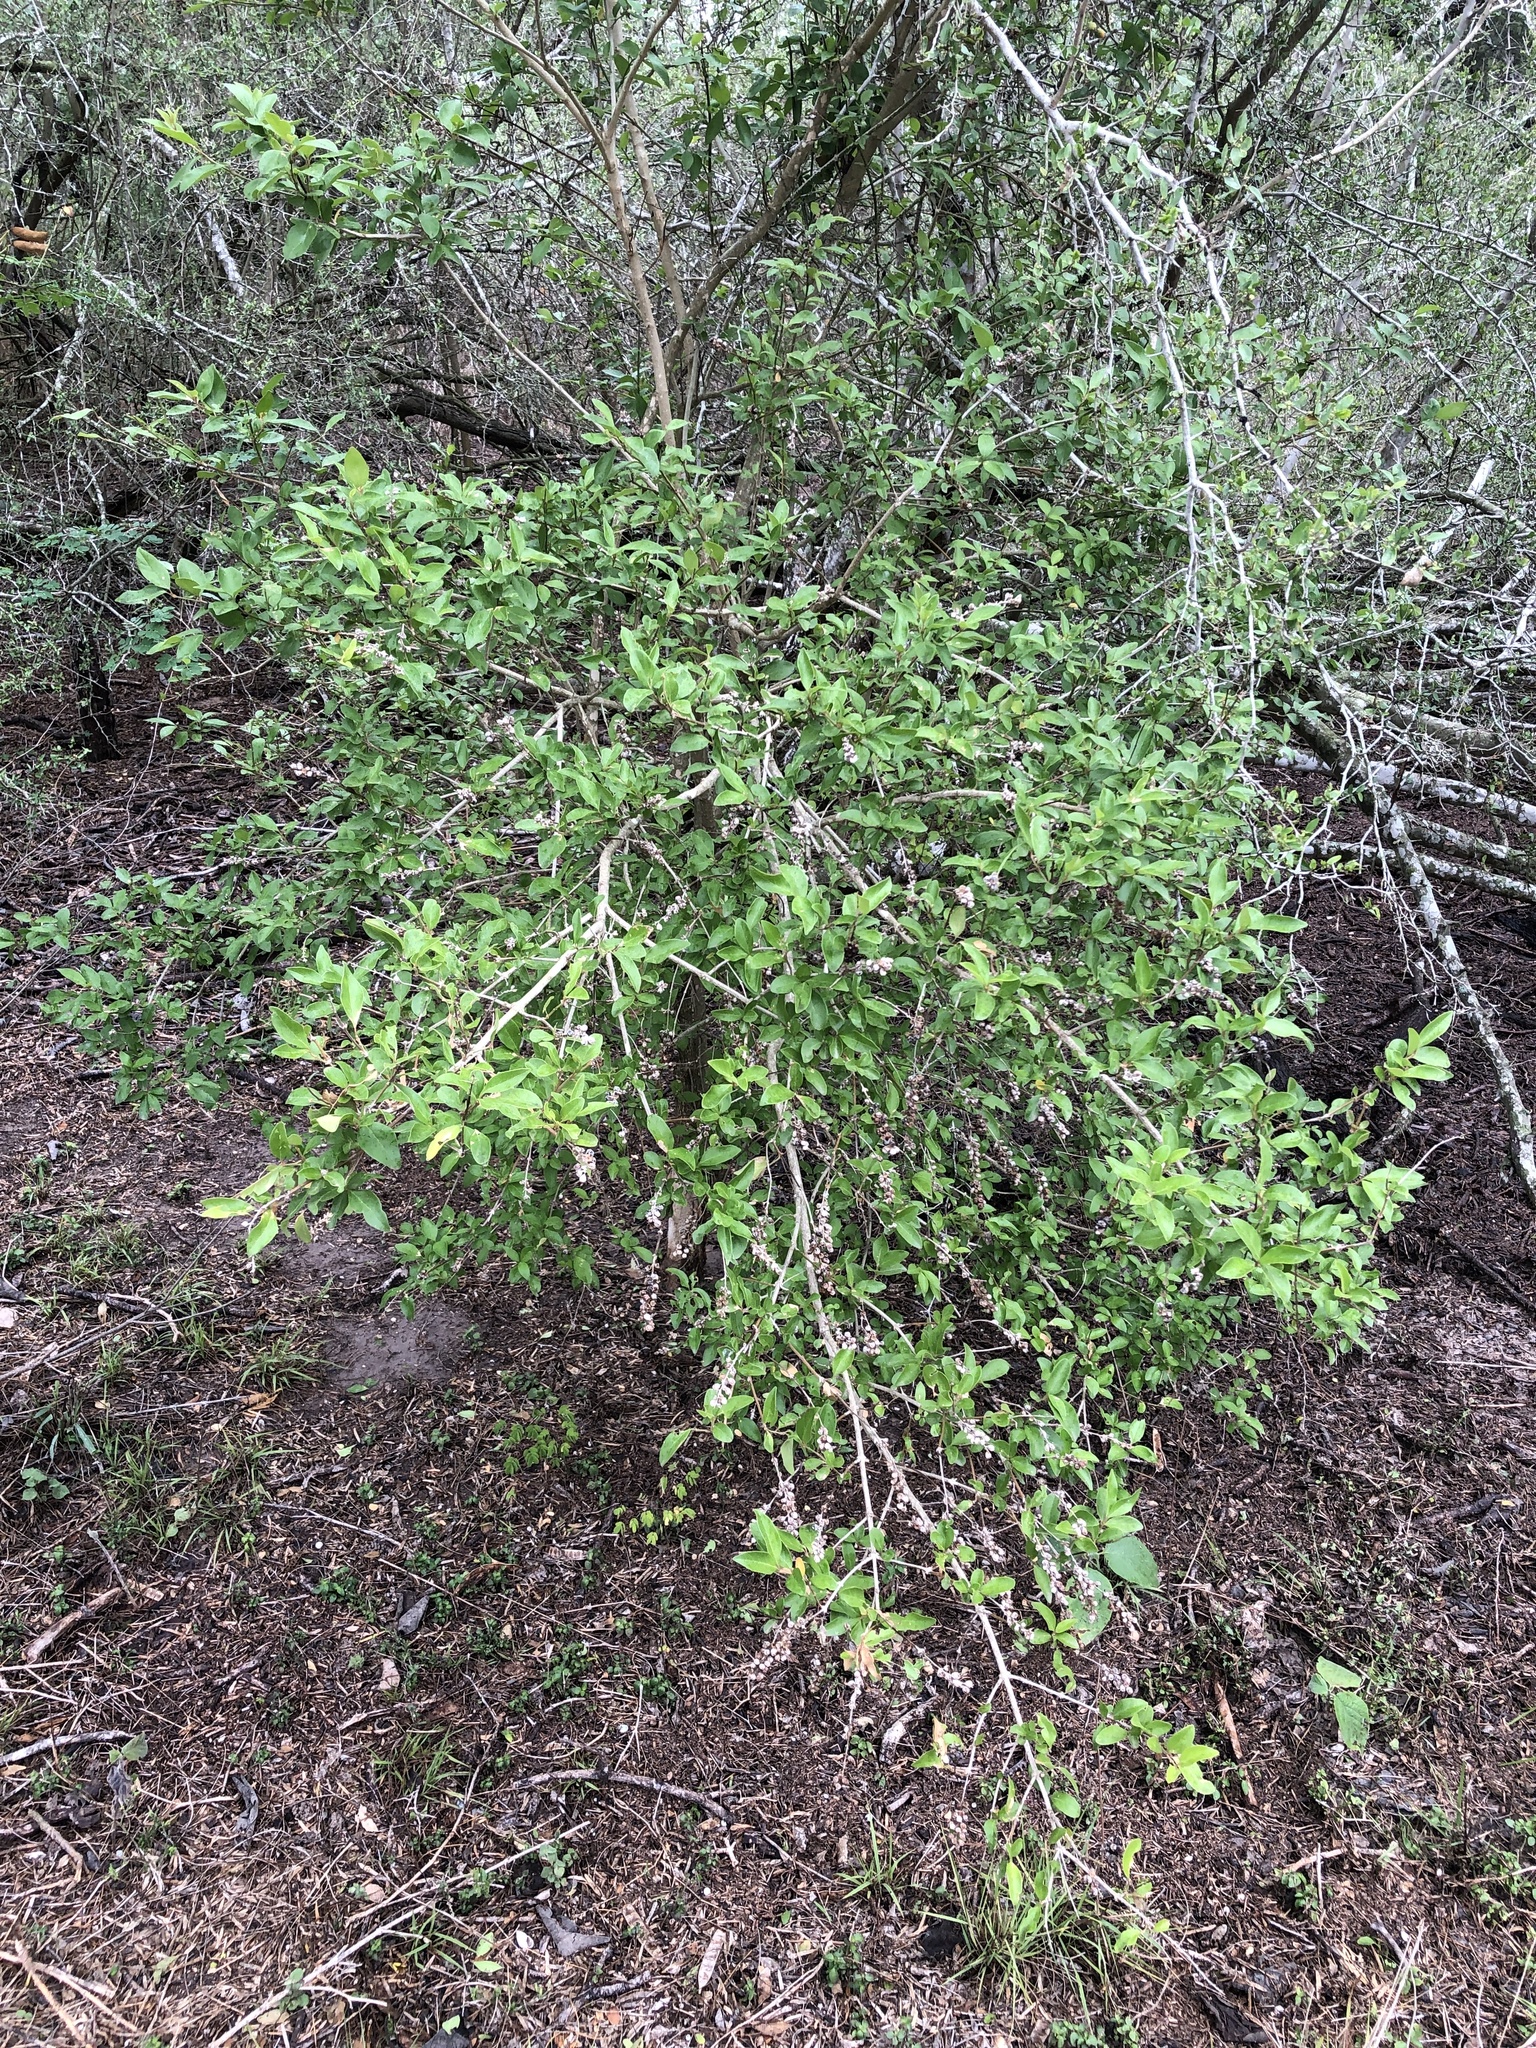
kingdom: Plantae
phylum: Tracheophyta
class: Magnoliopsida
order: Lamiales
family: Verbenaceae
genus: Citharexylum
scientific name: Citharexylum berlandieri
